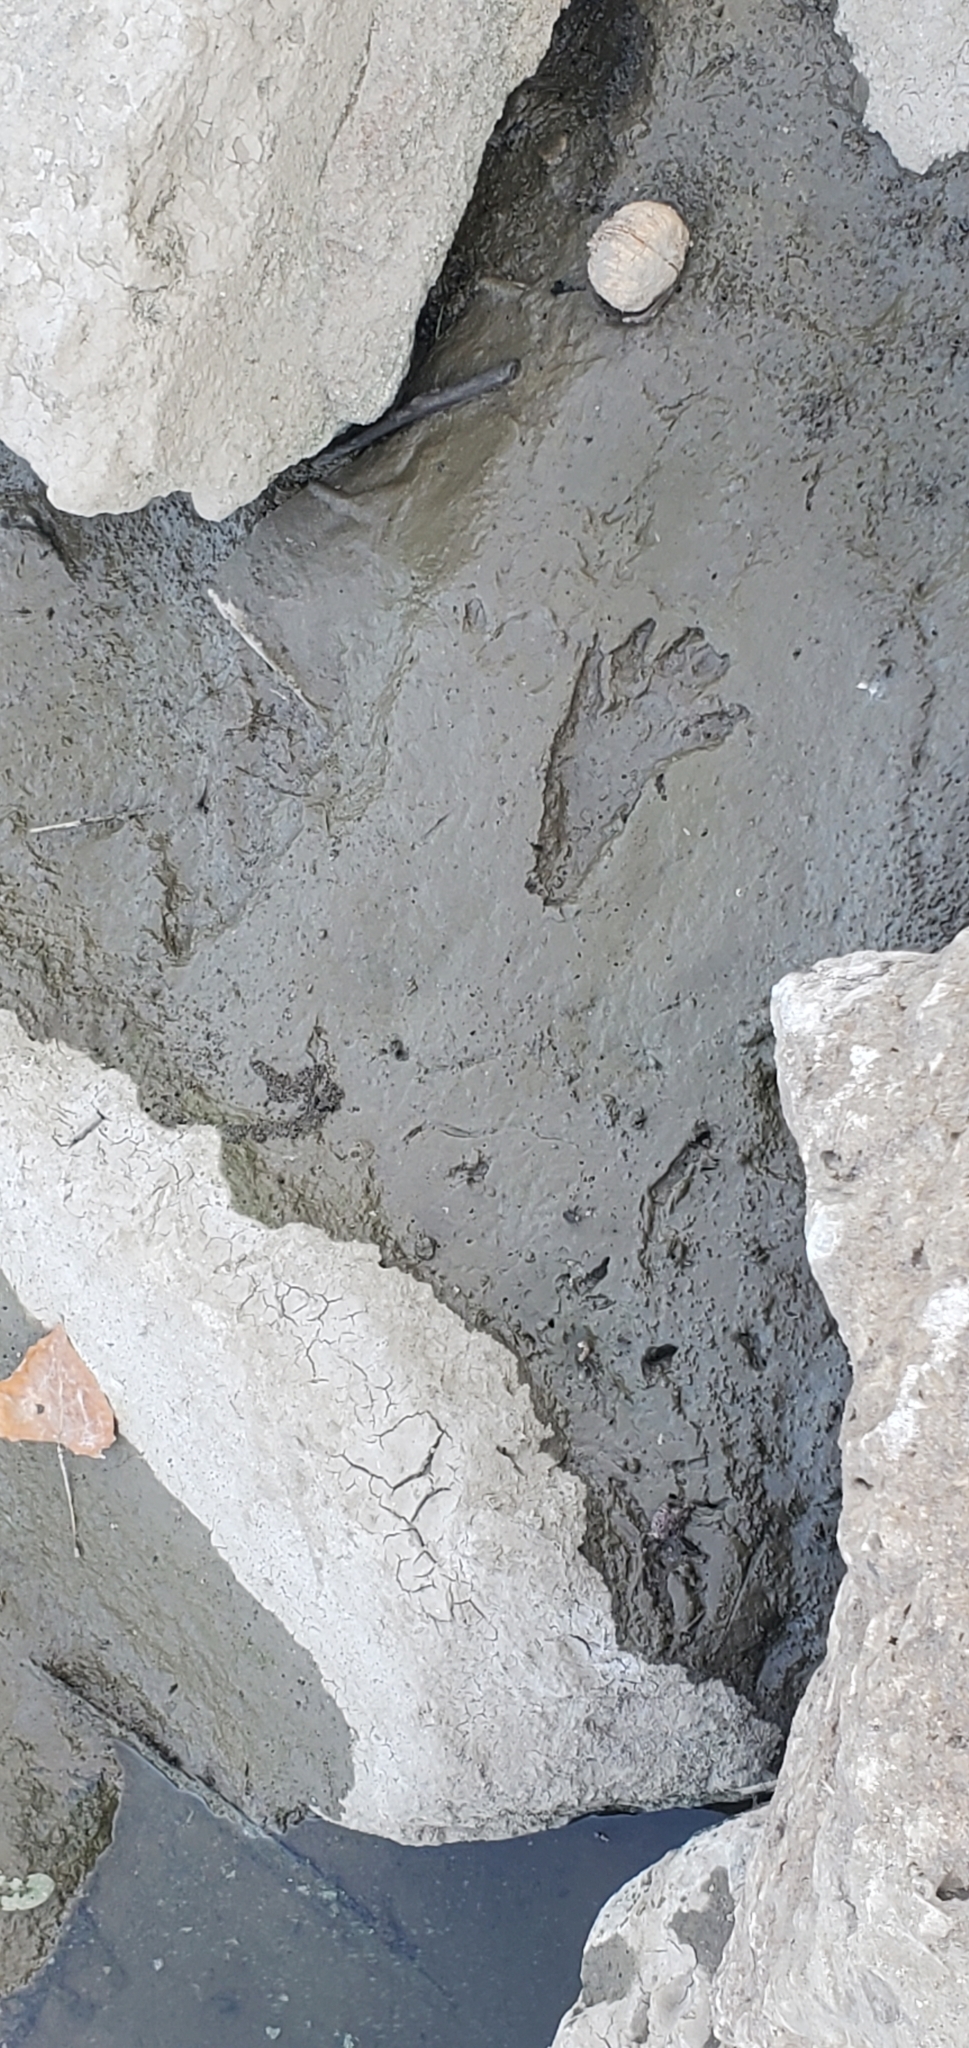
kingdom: Animalia
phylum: Chordata
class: Mammalia
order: Carnivora
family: Procyonidae
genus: Procyon
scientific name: Procyon lotor
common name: Raccoon
